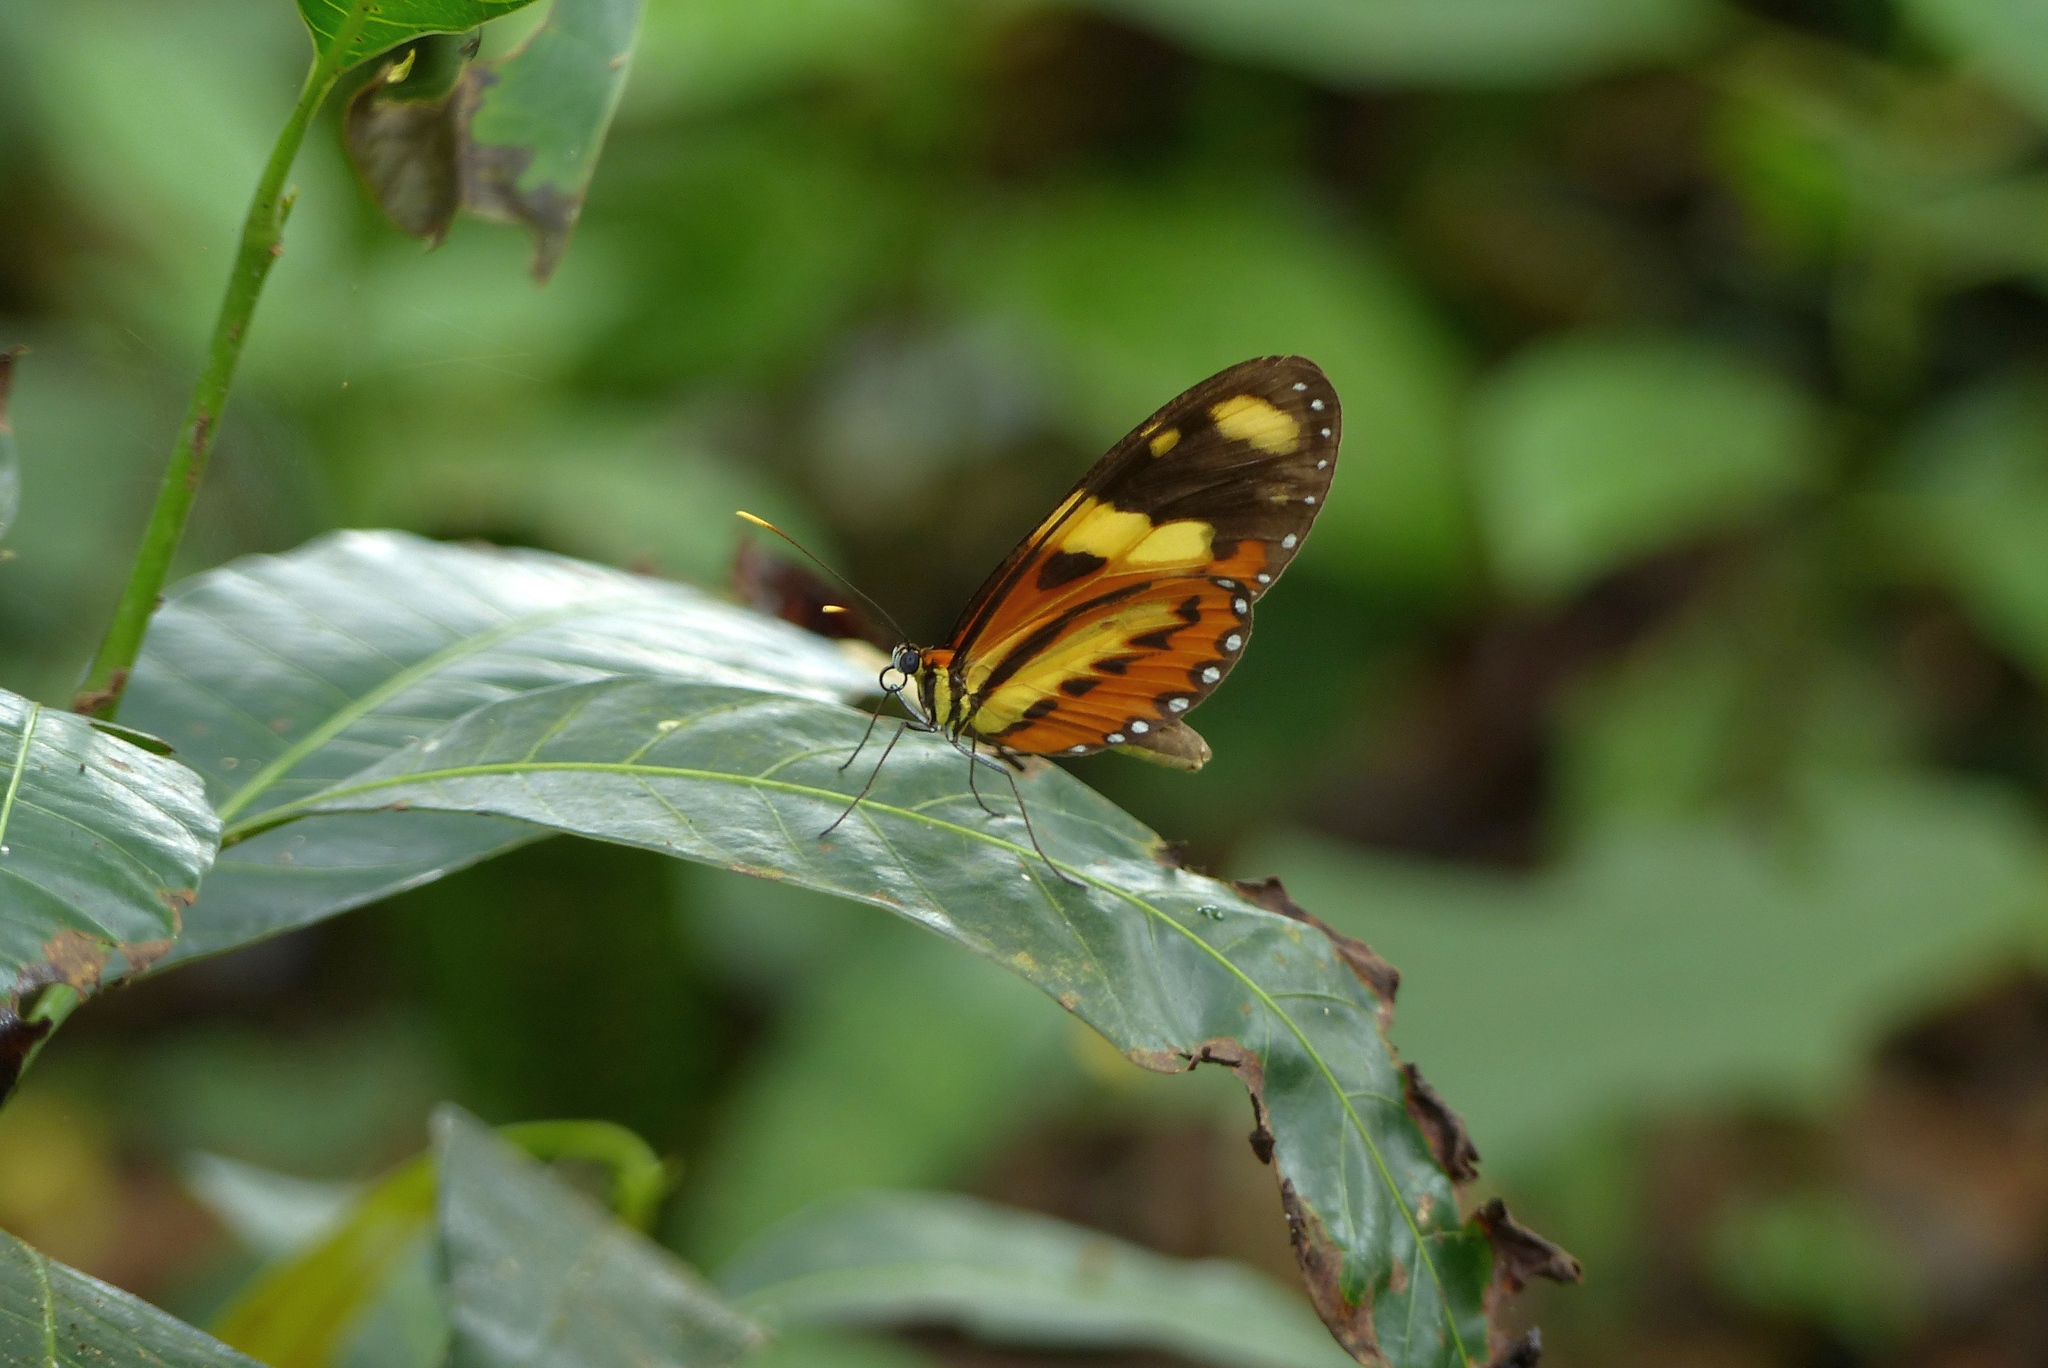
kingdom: Animalia
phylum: Arthropoda
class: Insecta
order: Lepidoptera
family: Nymphalidae
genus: Mechanitis
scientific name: Mechanitis lysimnia
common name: Lysimnia tigerwing
